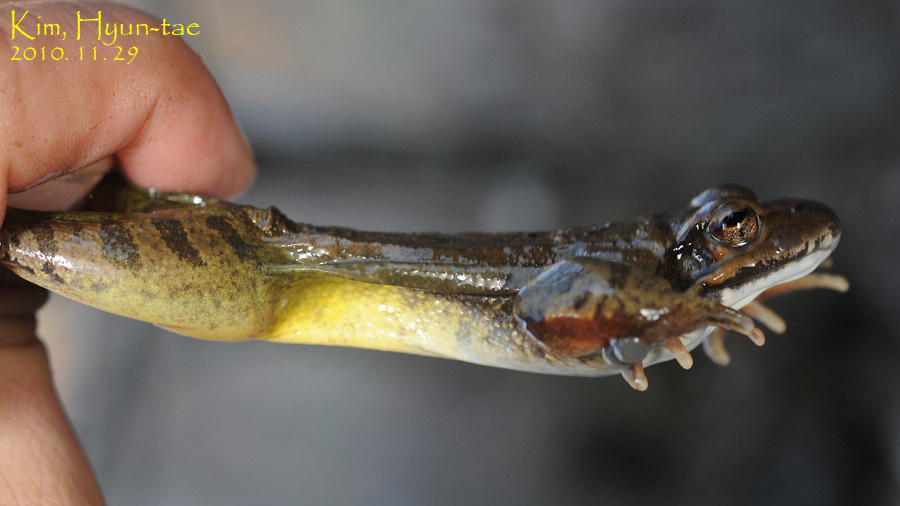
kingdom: Animalia
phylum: Chordata
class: Amphibia
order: Anura
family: Ranidae
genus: Rana
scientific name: Rana uenoi
